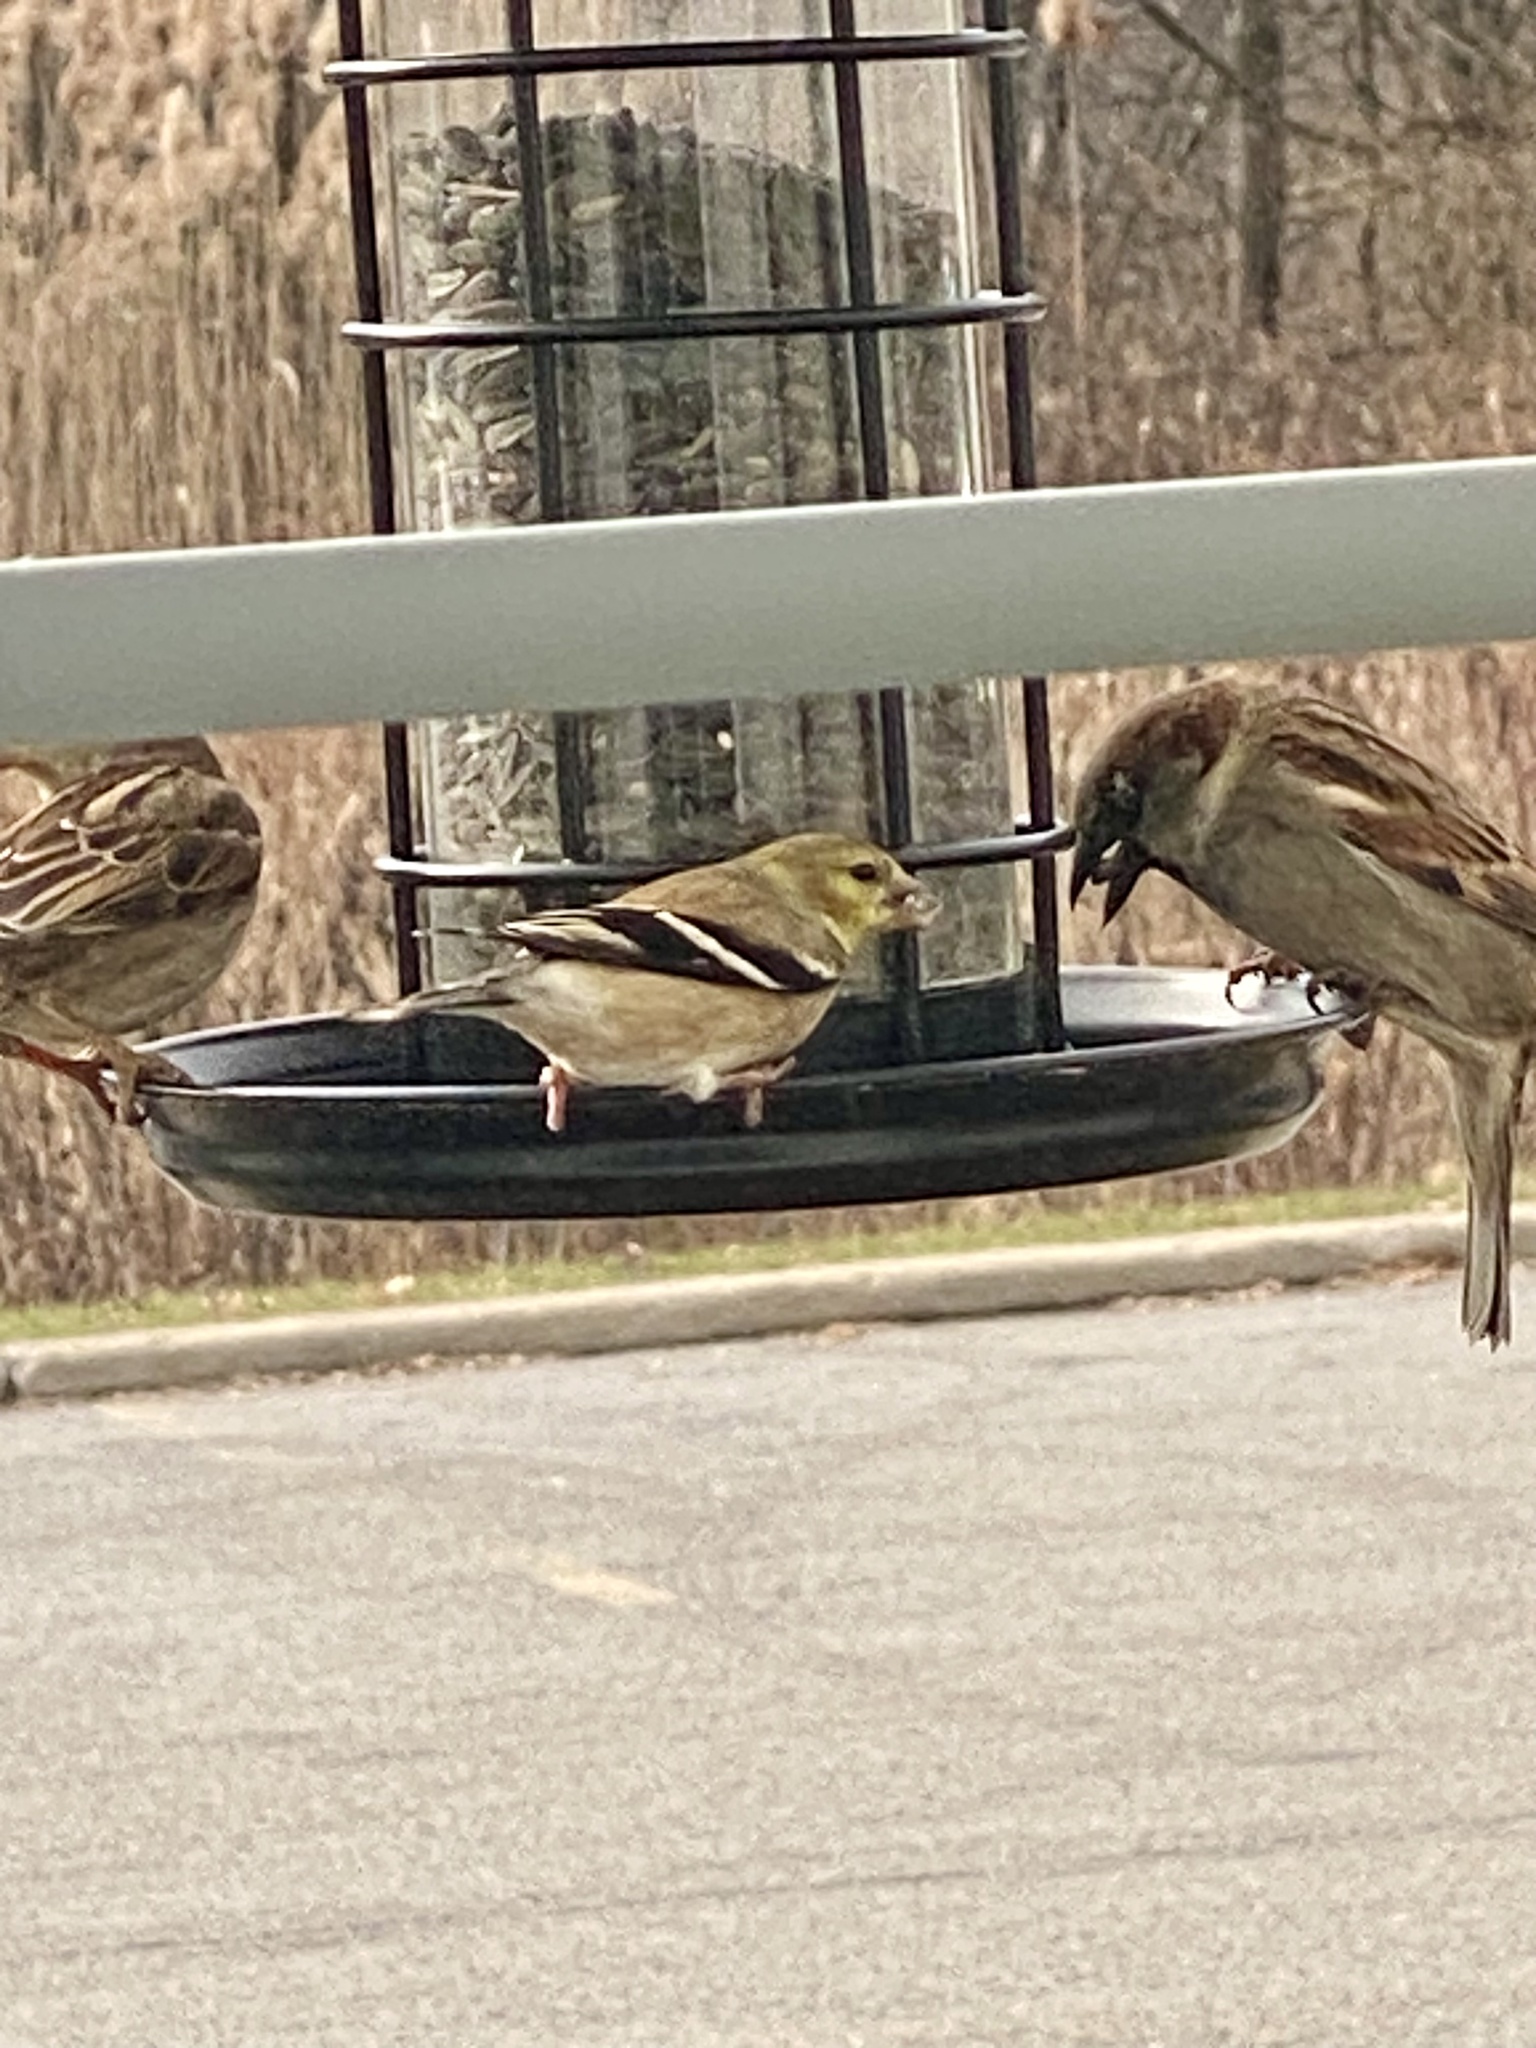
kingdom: Animalia
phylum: Chordata
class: Aves
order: Passeriformes
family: Fringillidae
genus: Spinus
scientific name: Spinus tristis
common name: American goldfinch
